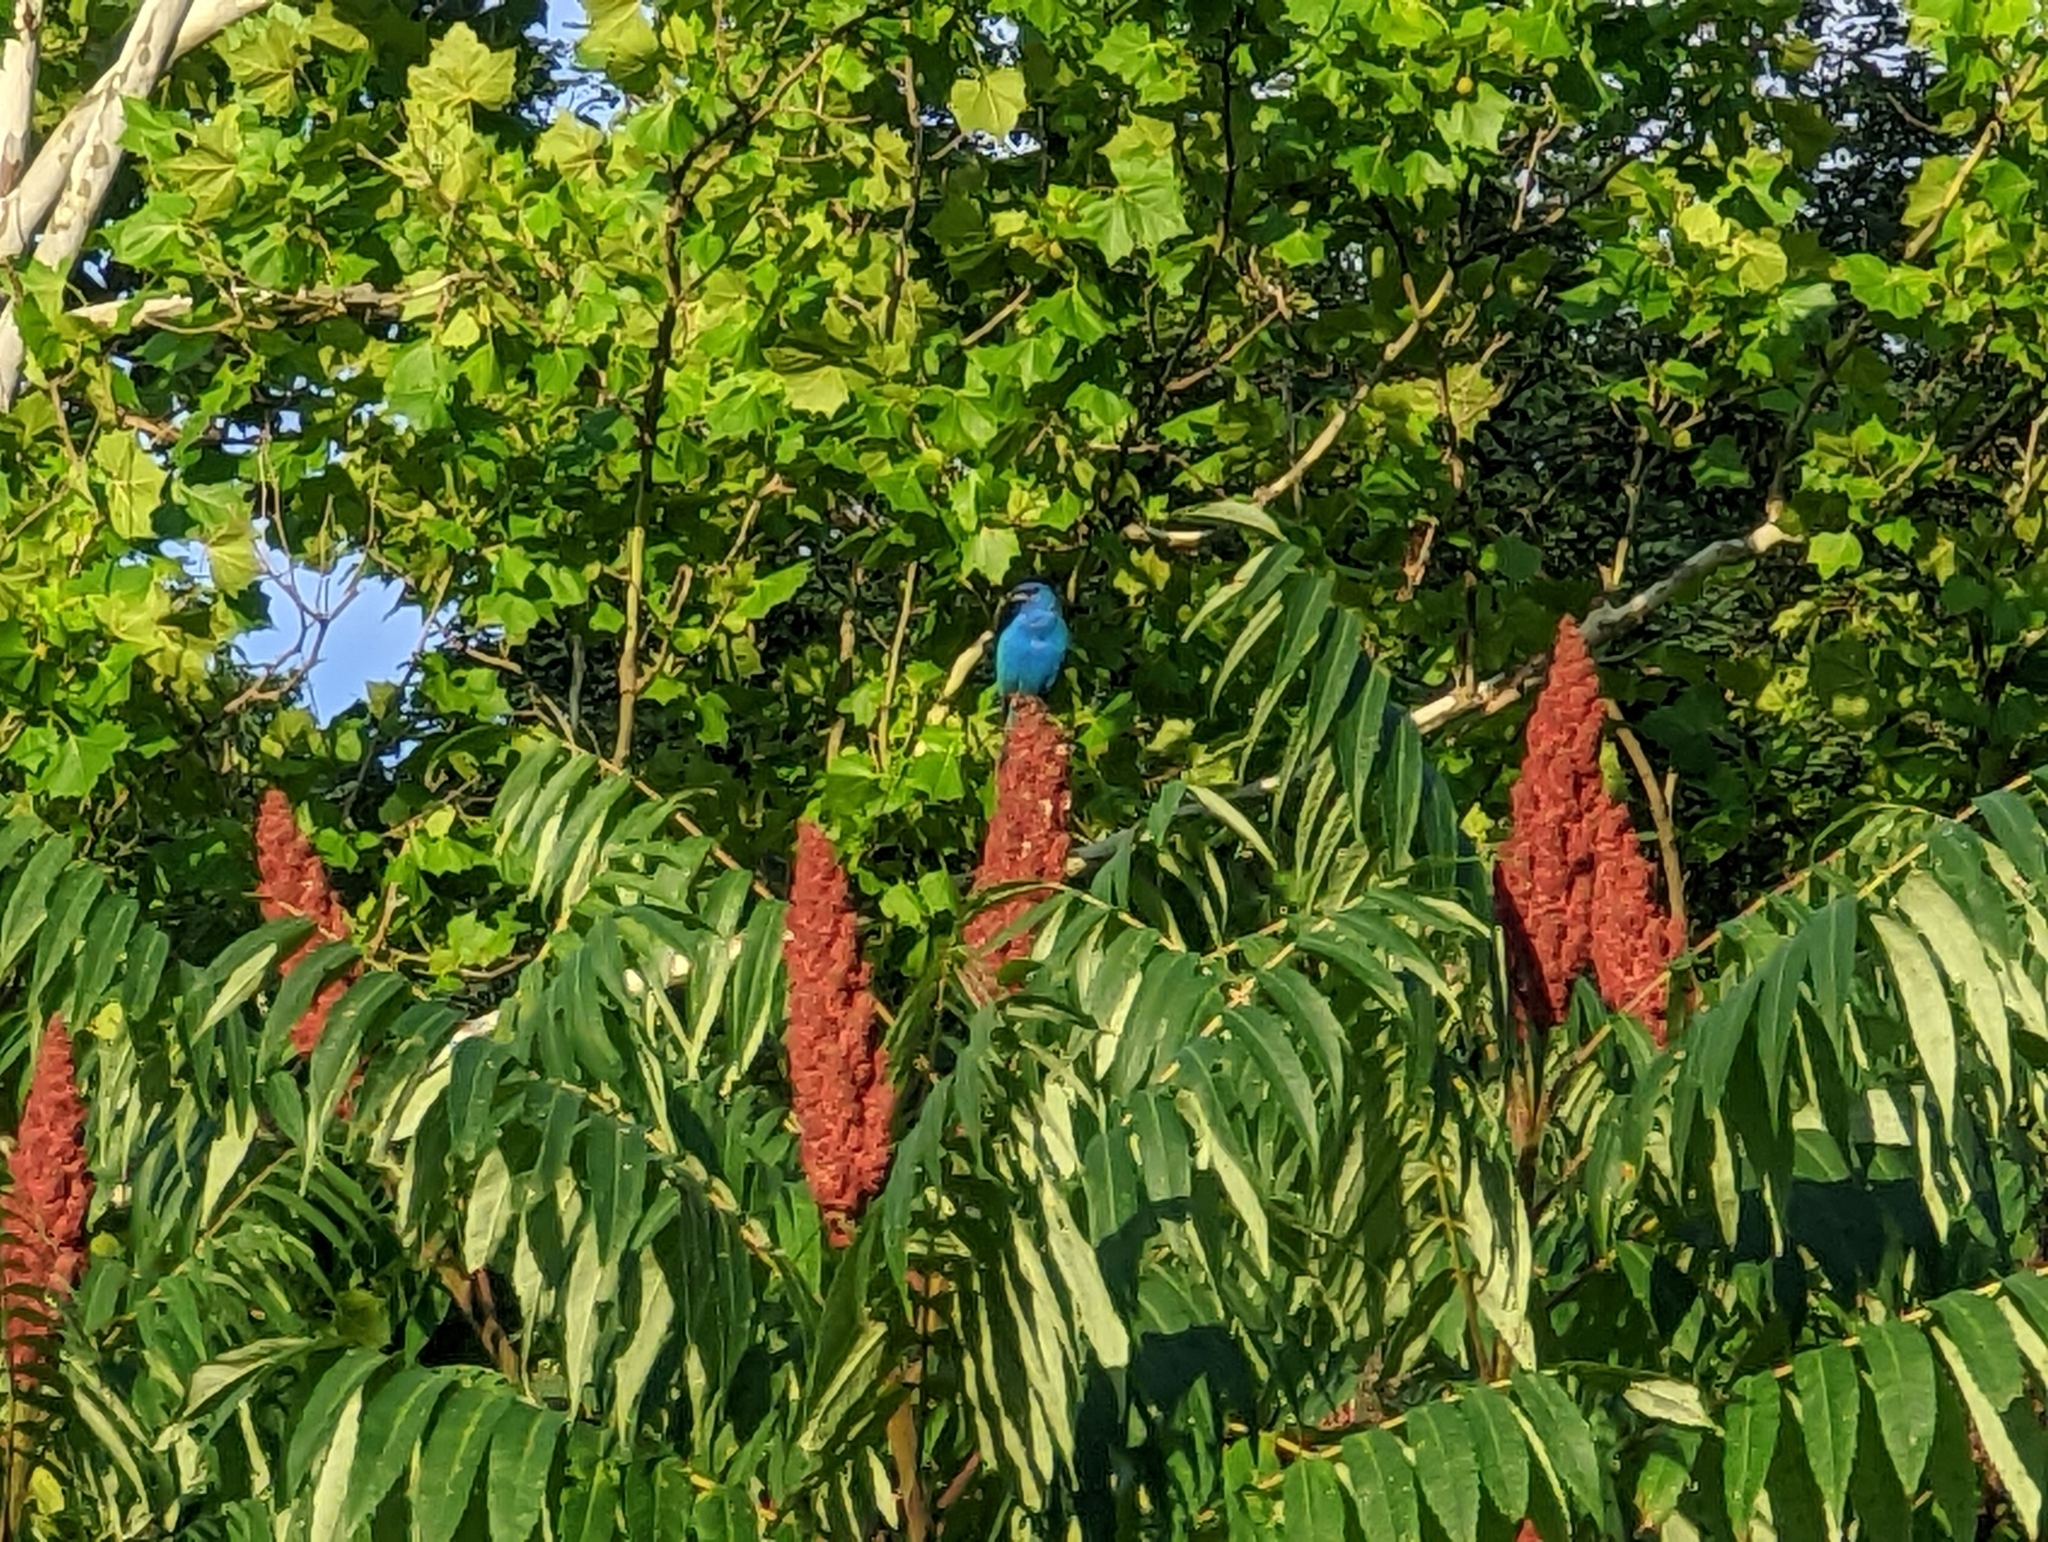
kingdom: Animalia
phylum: Chordata
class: Aves
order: Passeriformes
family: Cardinalidae
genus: Passerina
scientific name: Passerina cyanea
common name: Indigo bunting
